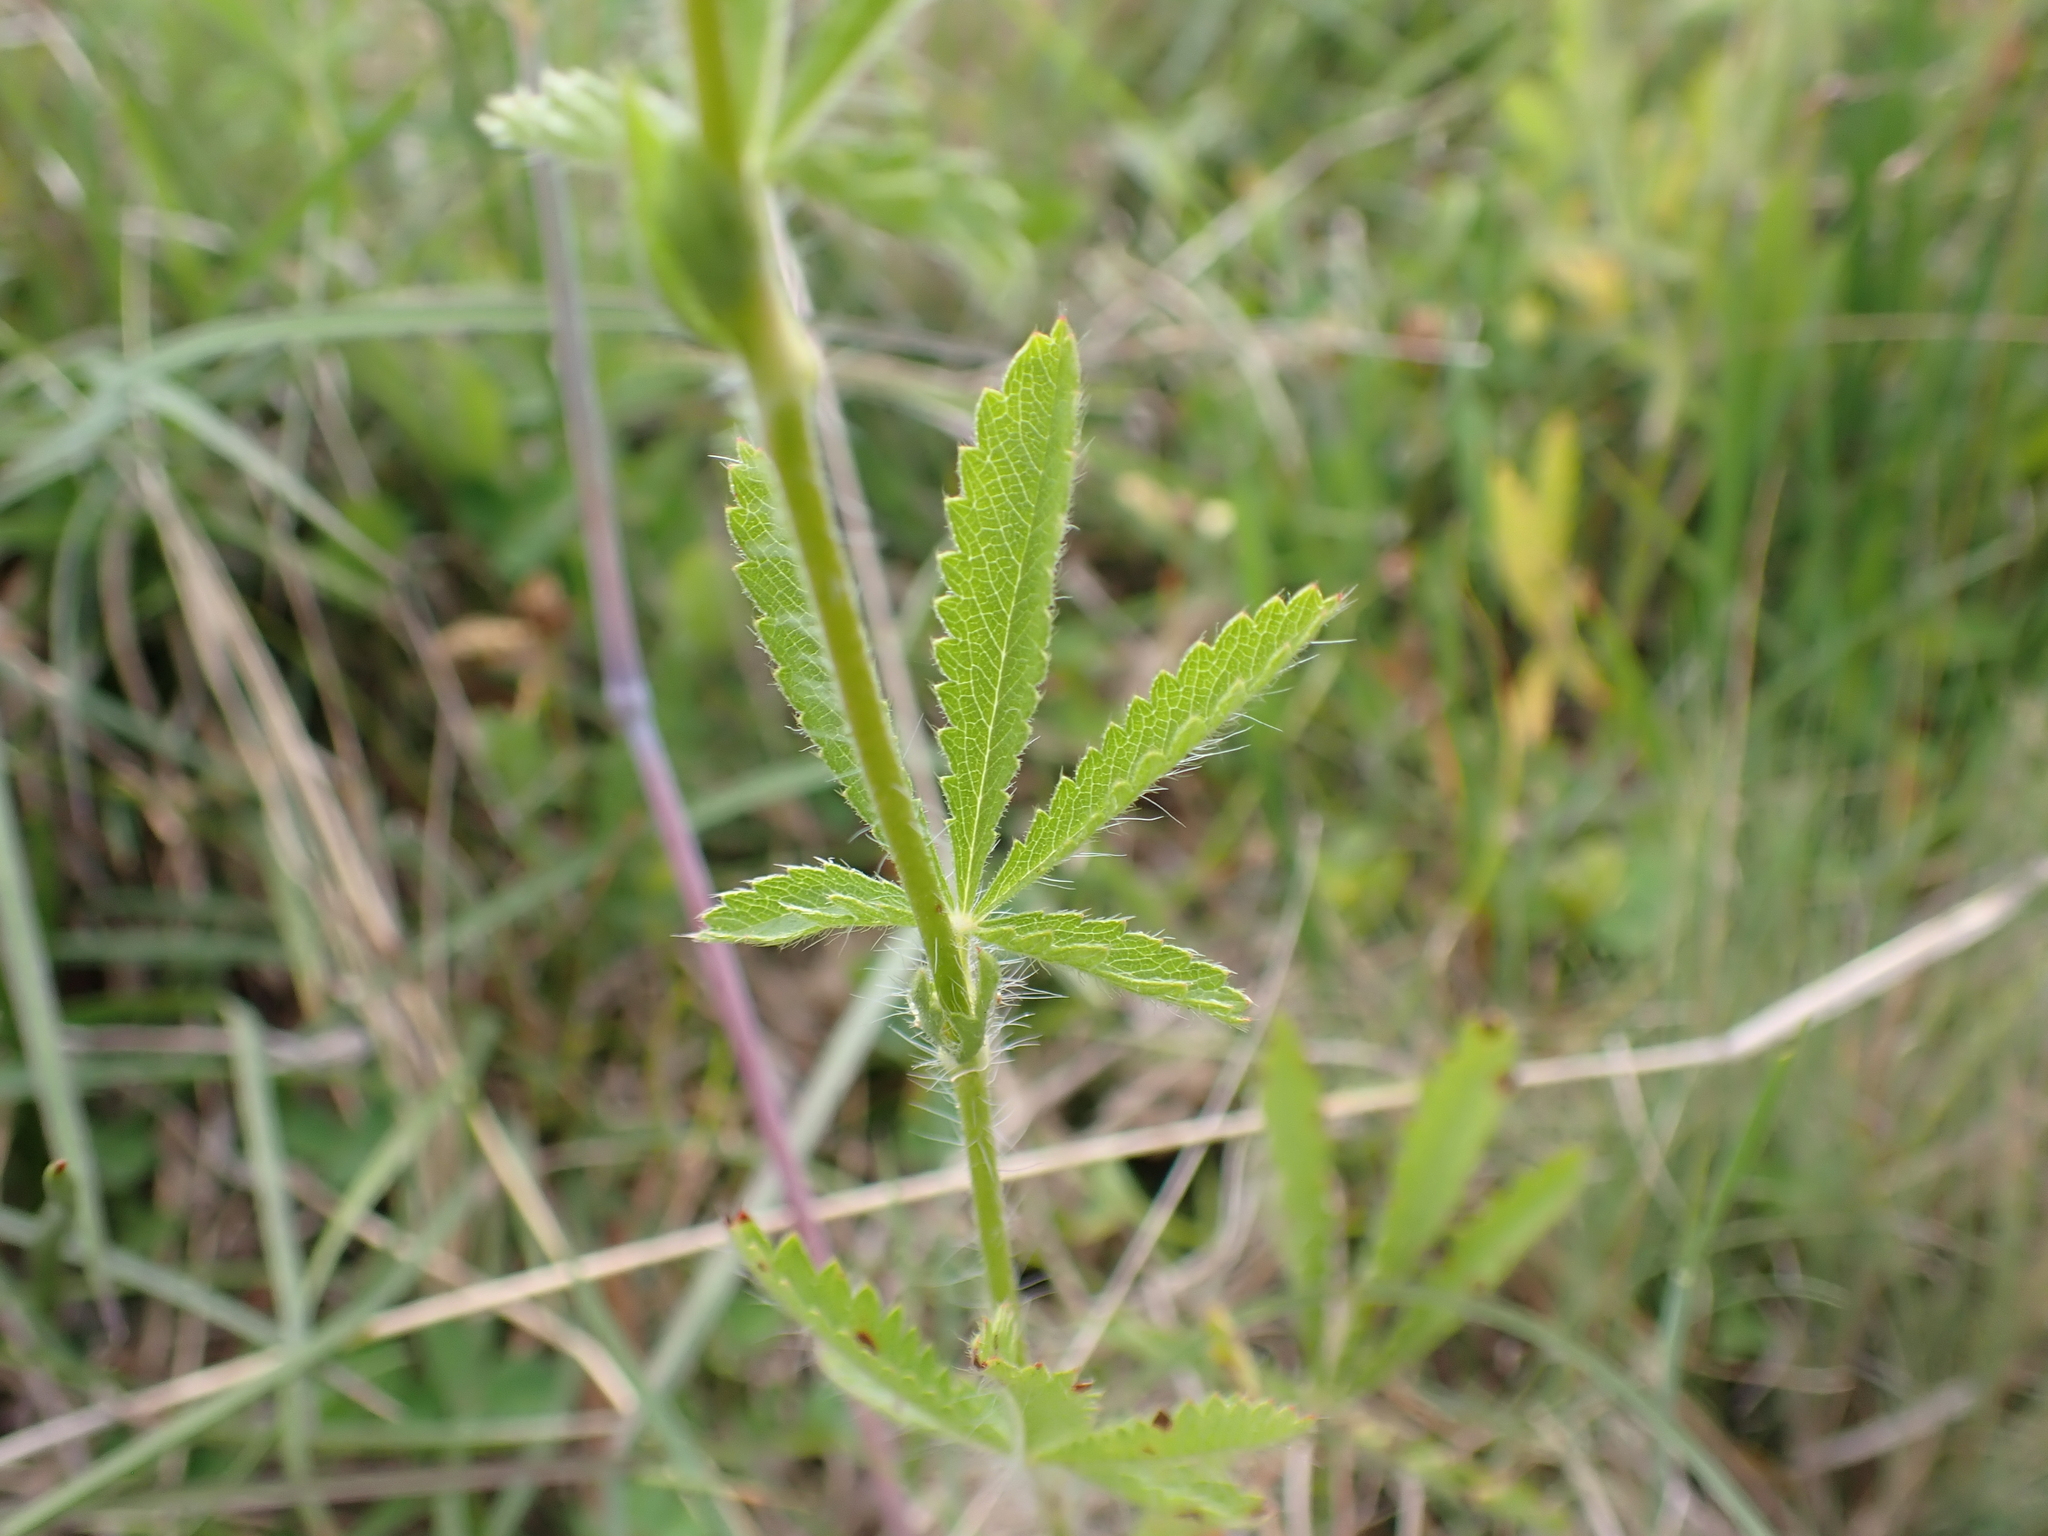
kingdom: Plantae
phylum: Tracheophyta
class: Magnoliopsida
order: Rosales
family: Rosaceae
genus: Potentilla
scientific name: Potentilla recta
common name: Sulphur cinquefoil
